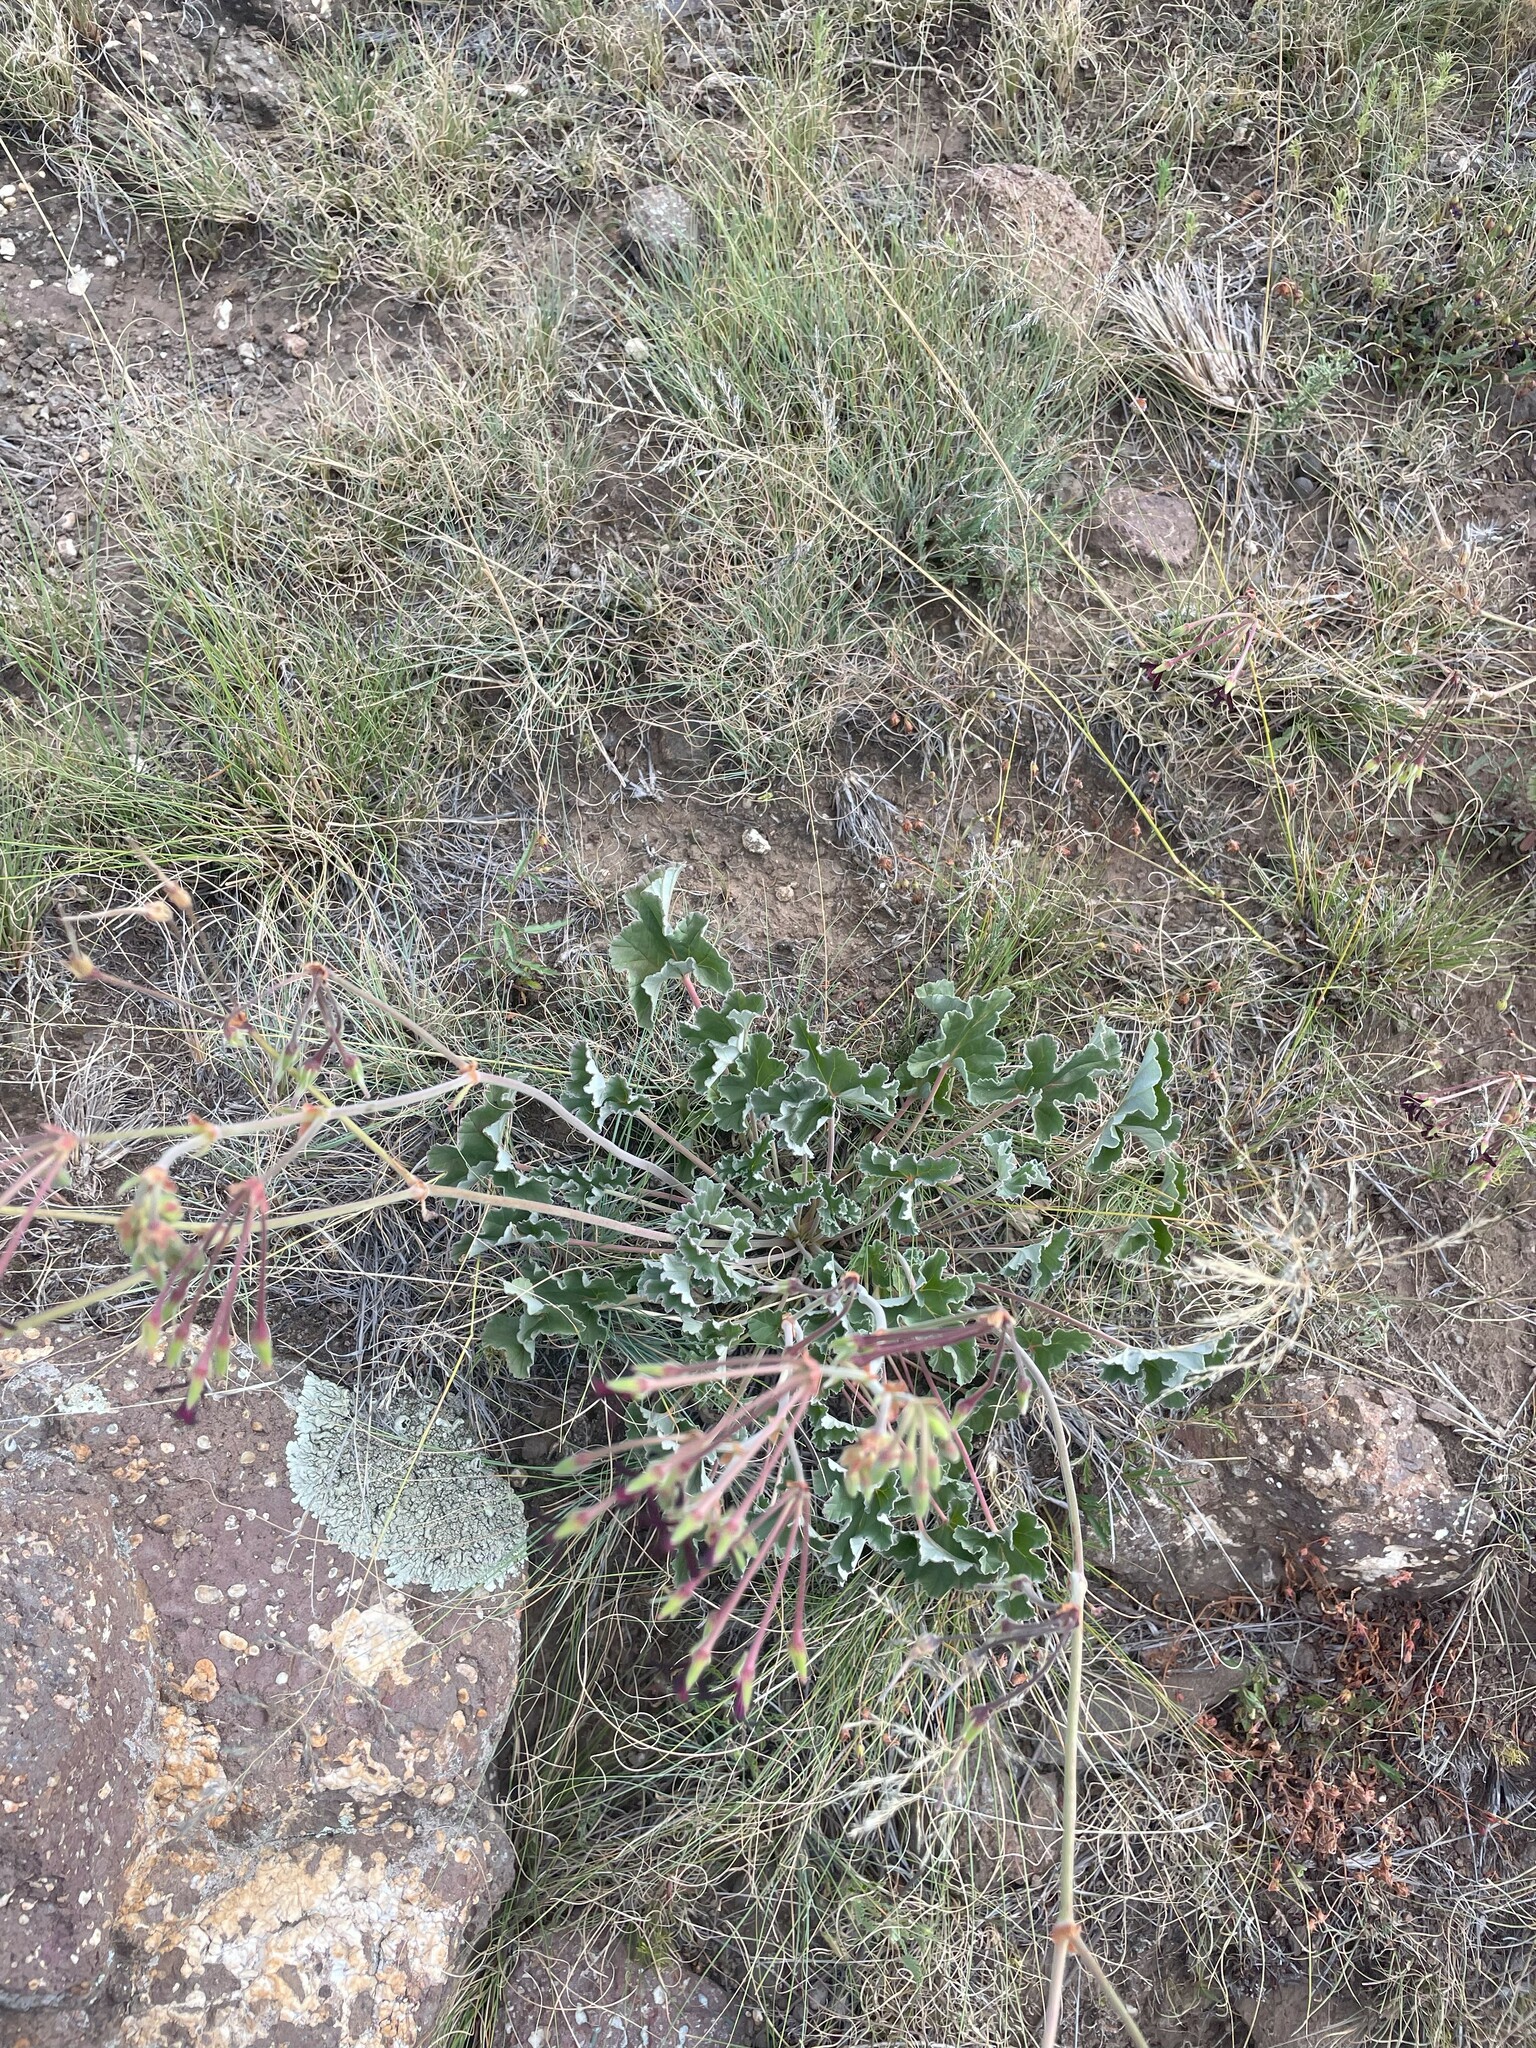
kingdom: Plantae
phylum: Tracheophyta
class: Magnoliopsida
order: Geraniales
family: Geraniaceae
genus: Pelargonium
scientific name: Pelargonium sidoides
